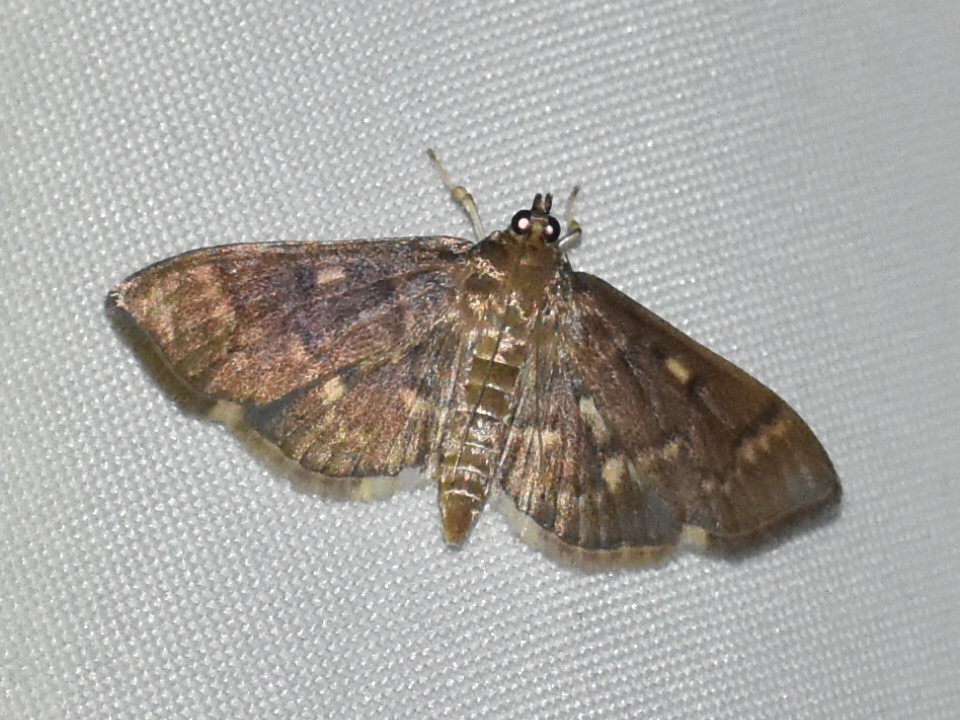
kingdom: Animalia
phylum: Arthropoda
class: Insecta
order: Lepidoptera
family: Crambidae
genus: Herpetogramma
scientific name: Herpetogramma aeglealis
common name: Serpentine webworm moth
